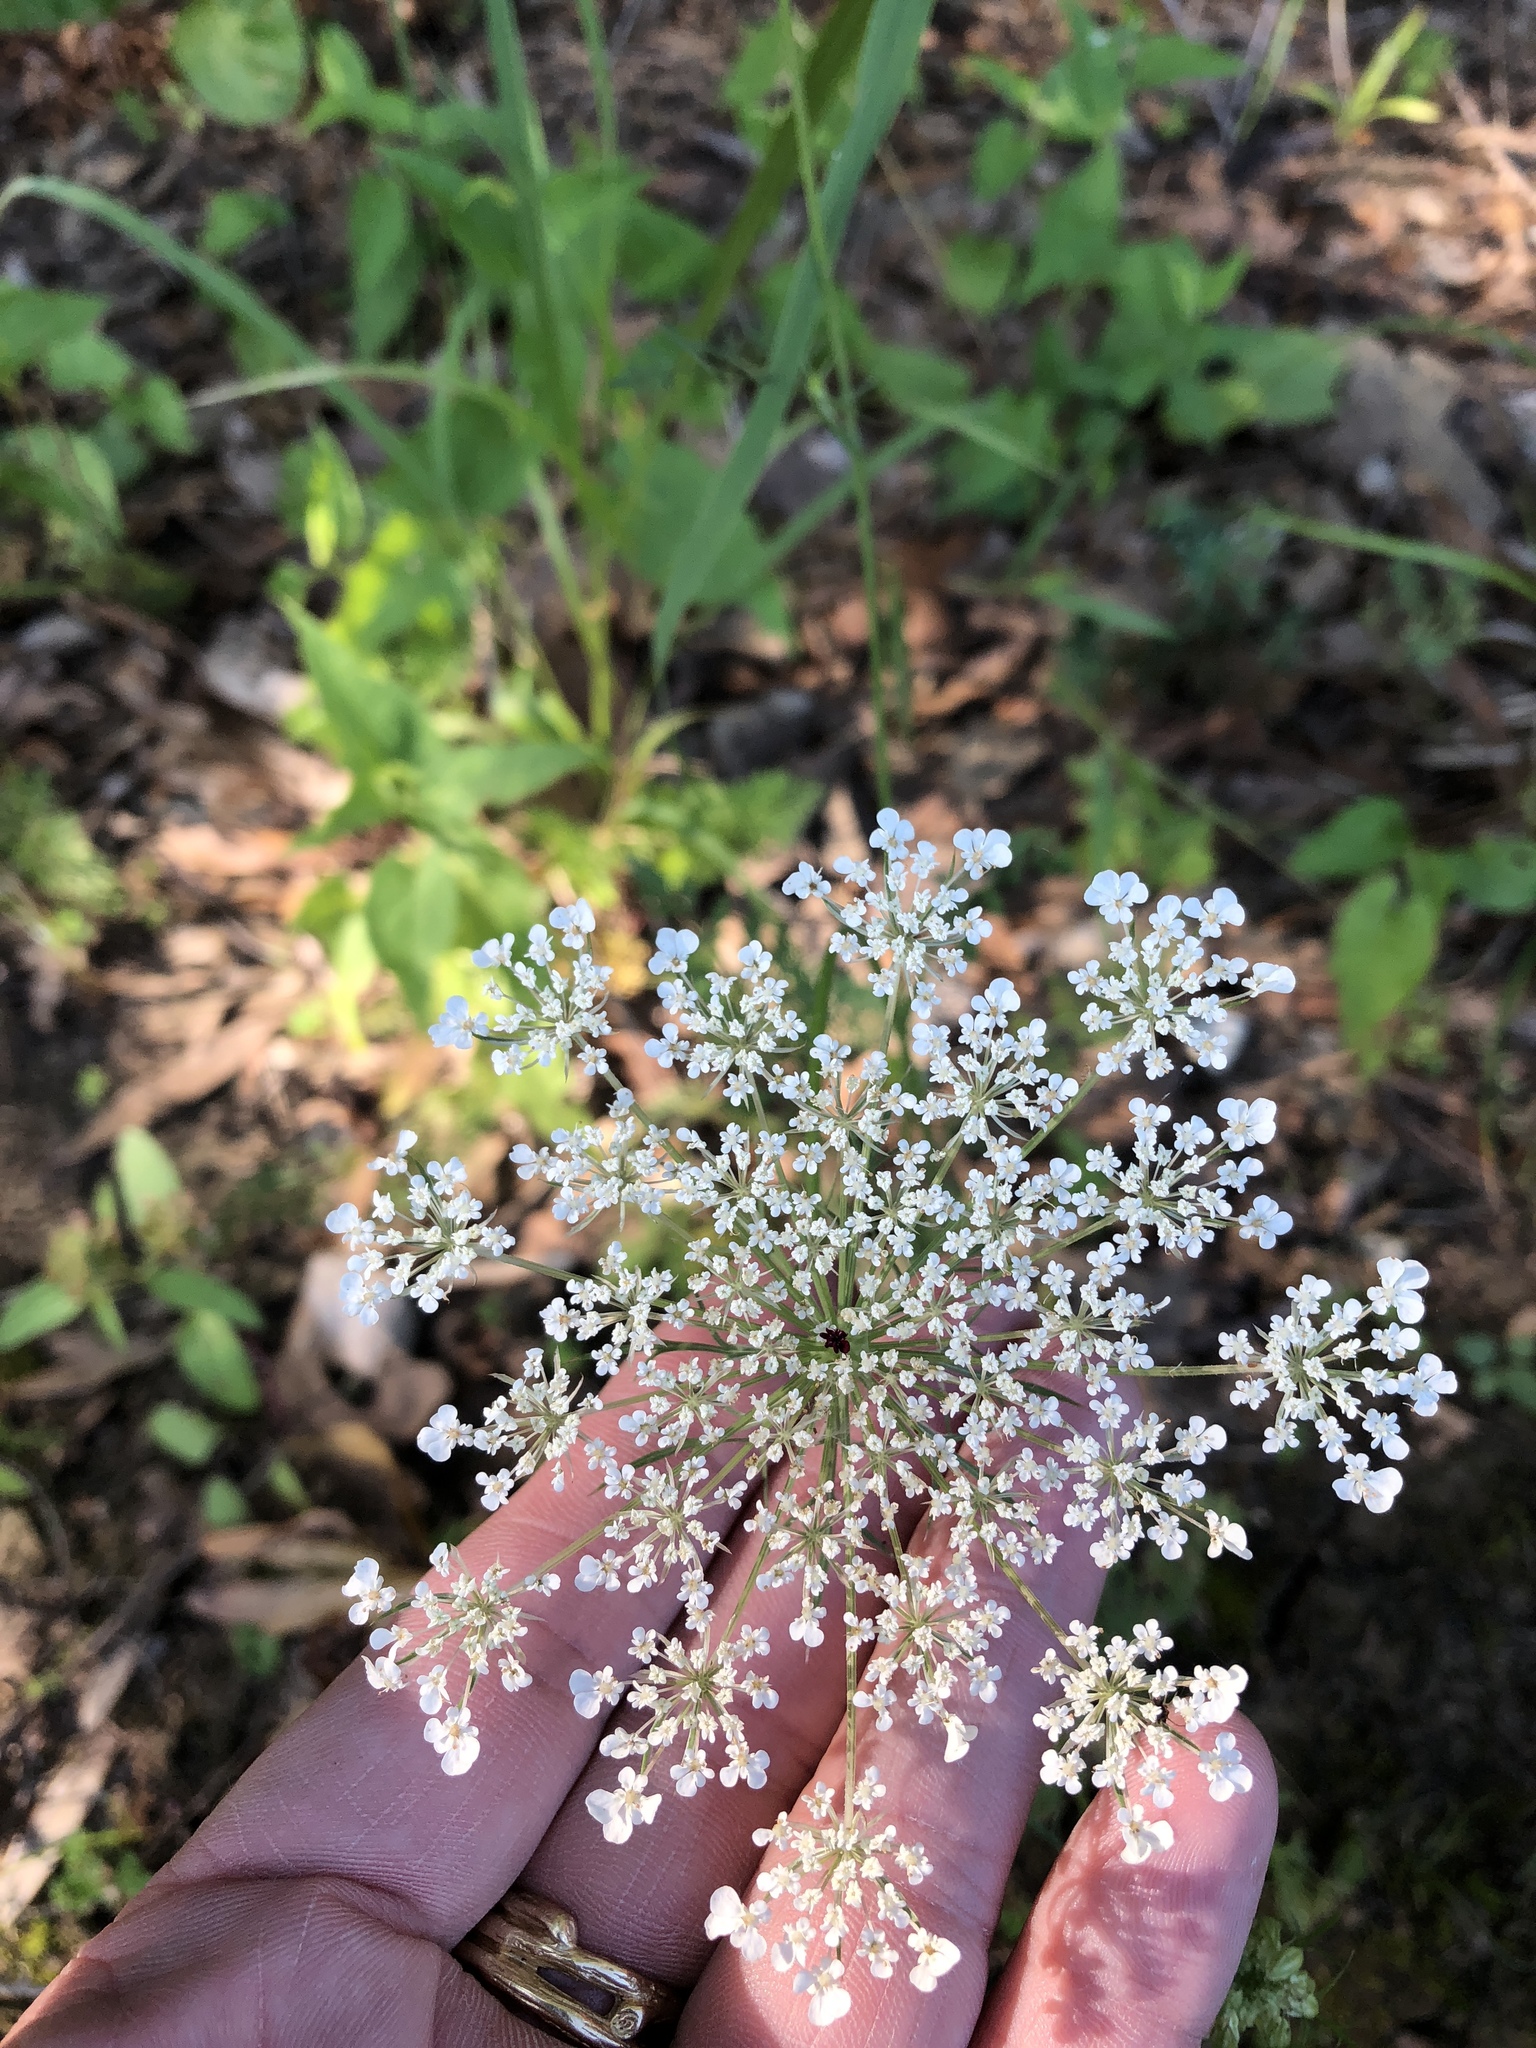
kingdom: Plantae
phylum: Tracheophyta
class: Magnoliopsida
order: Apiales
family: Apiaceae
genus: Daucus
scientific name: Daucus carota
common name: Wild carrot
